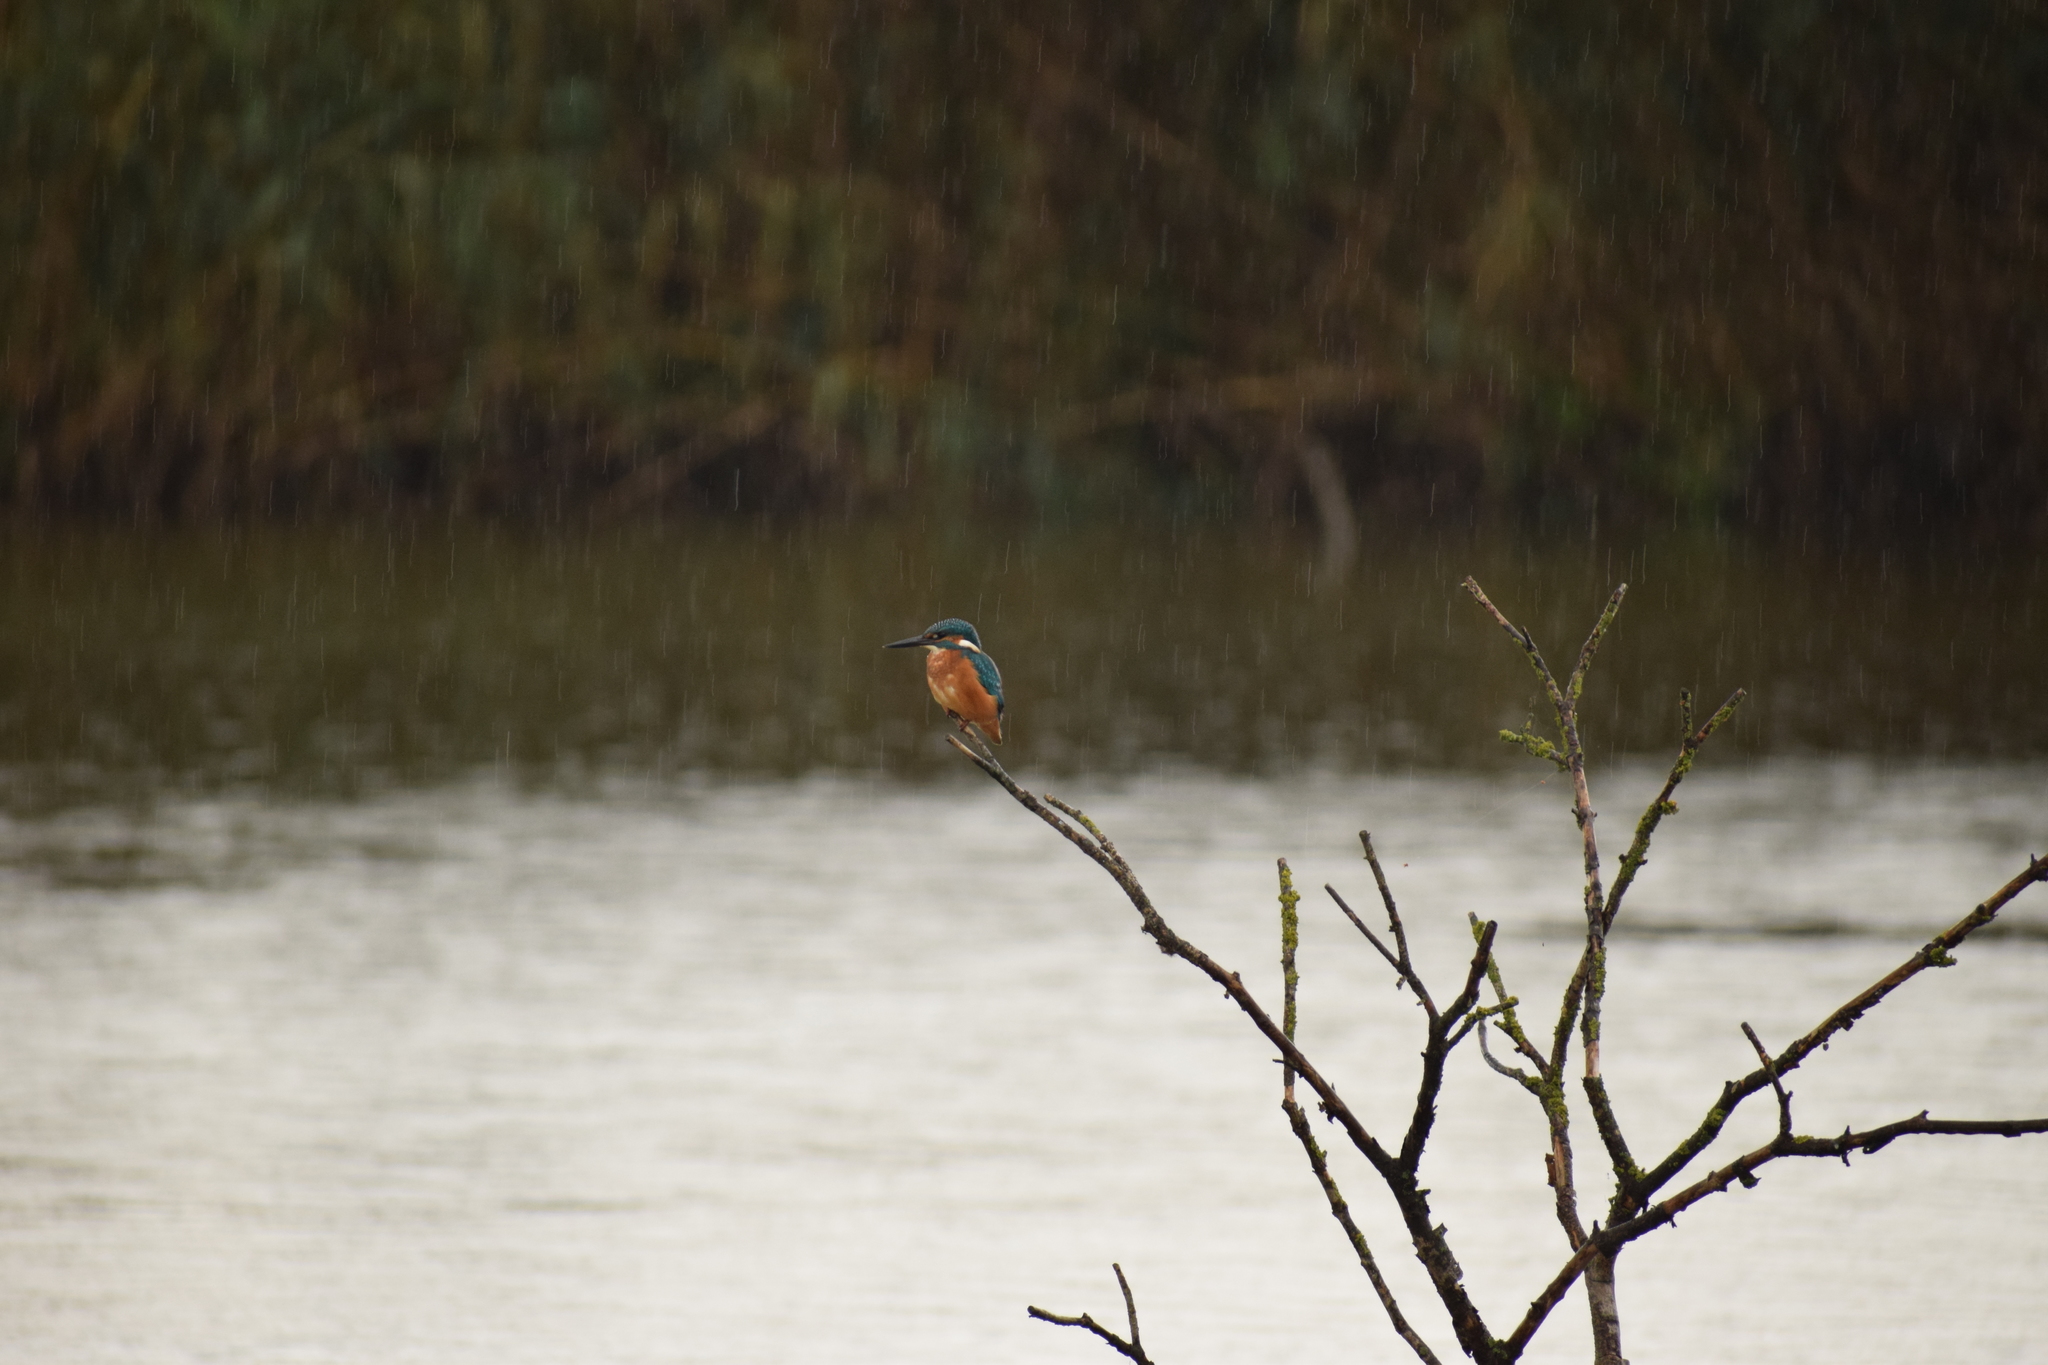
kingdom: Animalia
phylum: Chordata
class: Aves
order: Coraciiformes
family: Alcedinidae
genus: Alcedo
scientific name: Alcedo atthis
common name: Common kingfisher
